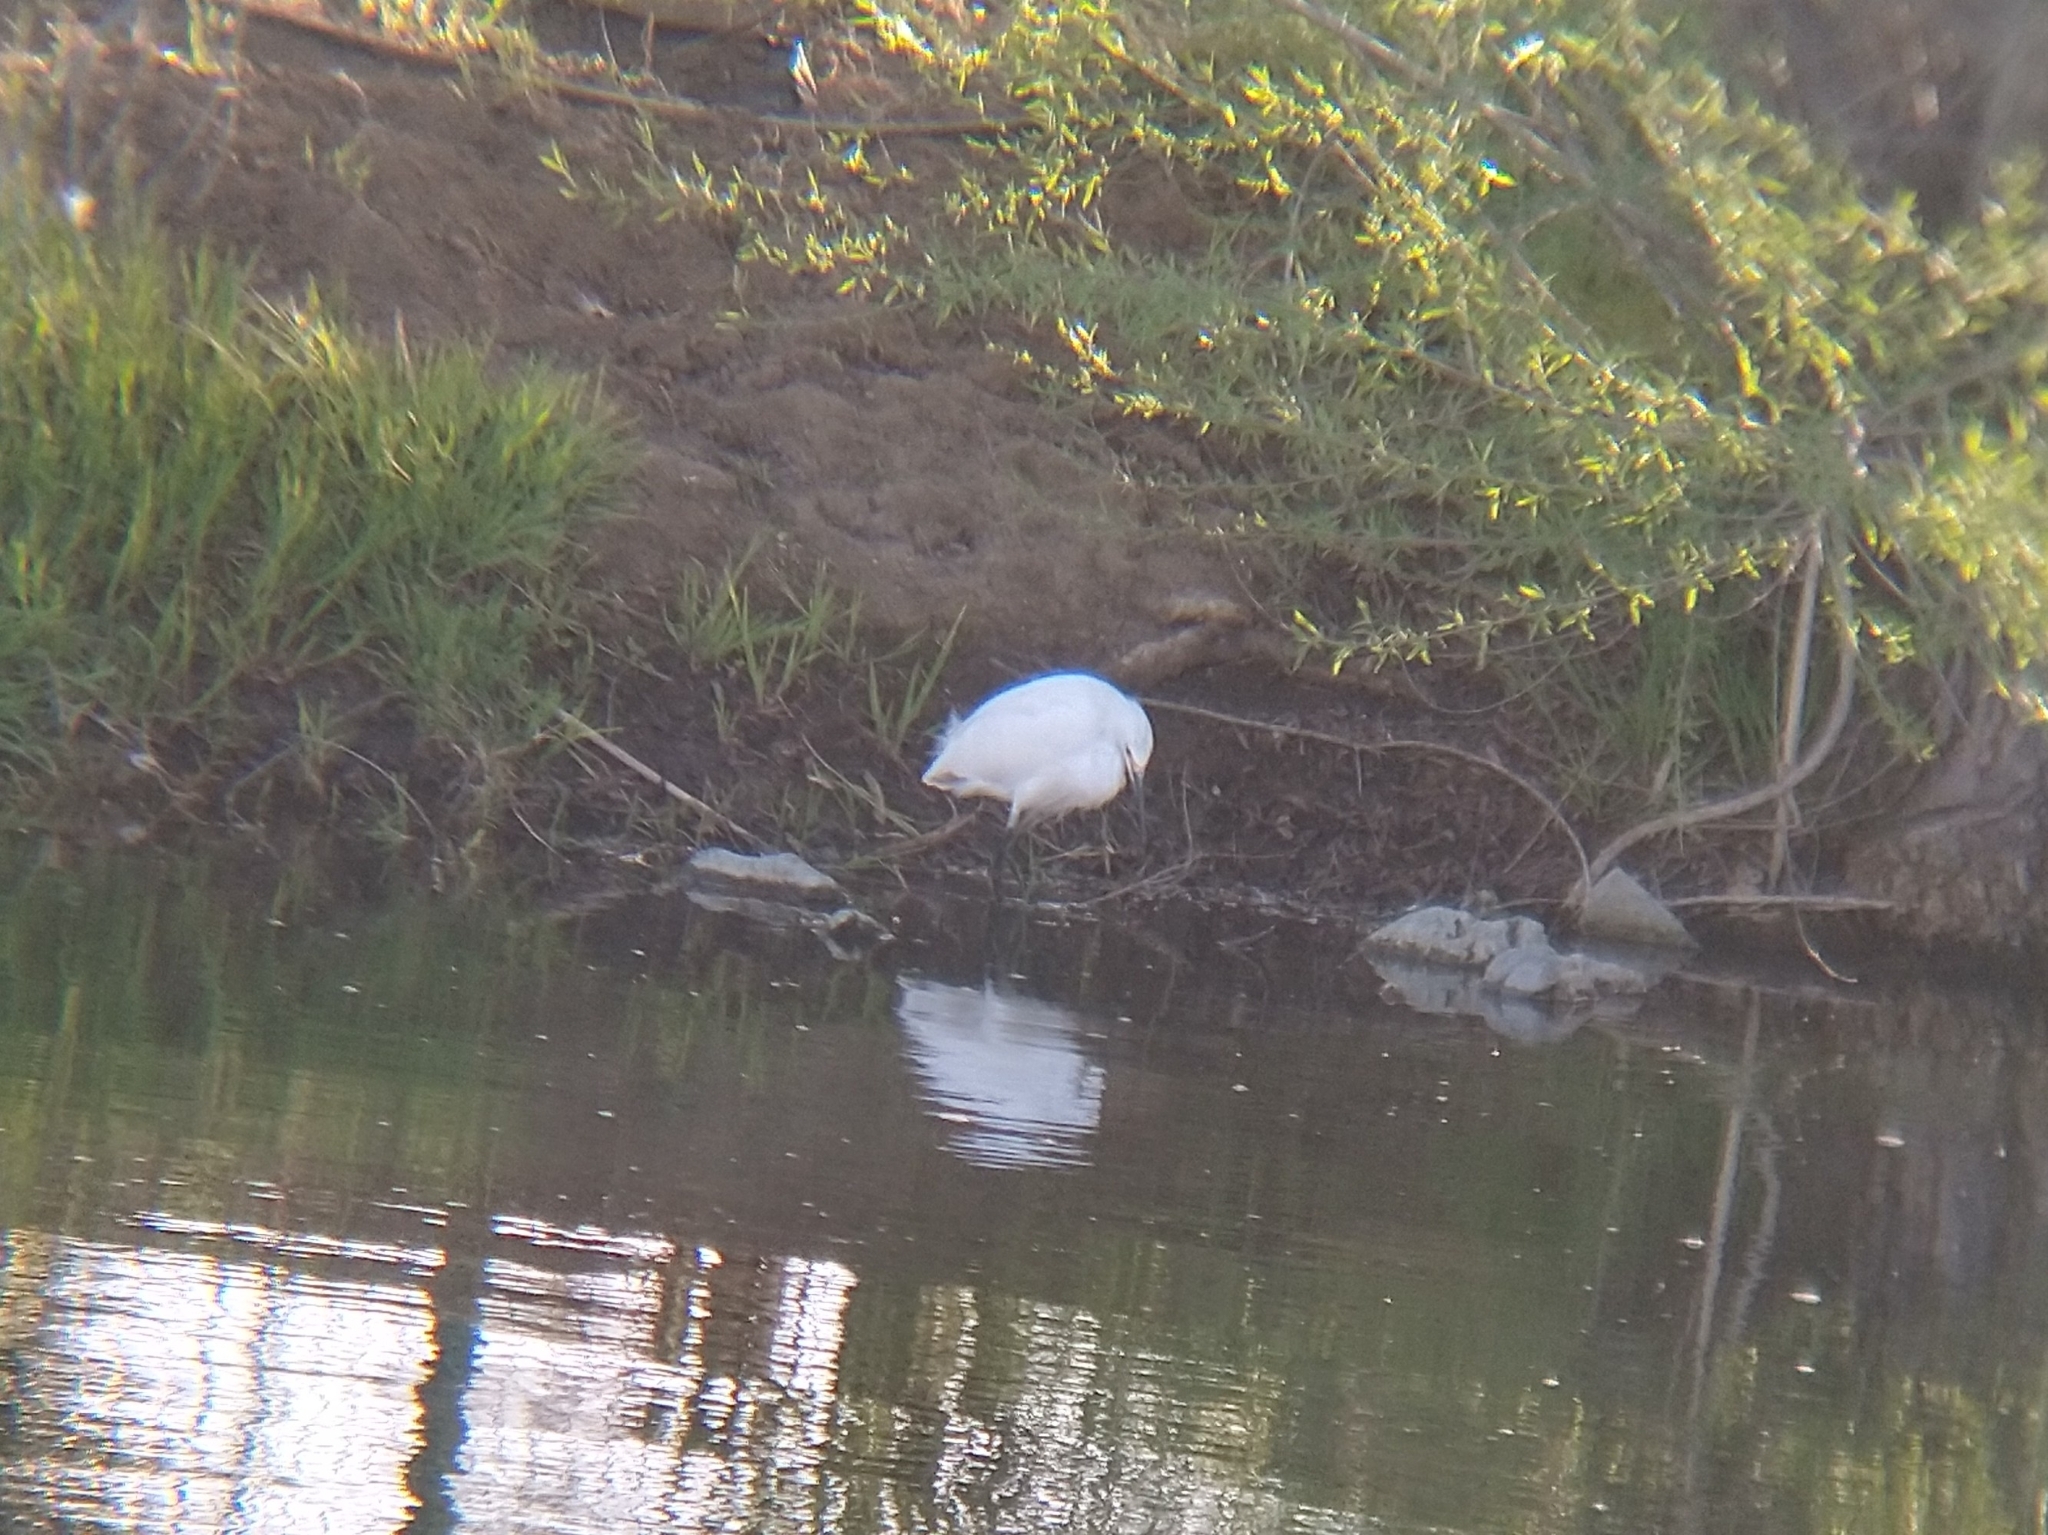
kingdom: Animalia
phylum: Chordata
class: Aves
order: Pelecaniformes
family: Ardeidae
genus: Egretta
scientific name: Egretta thula
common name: Snowy egret
